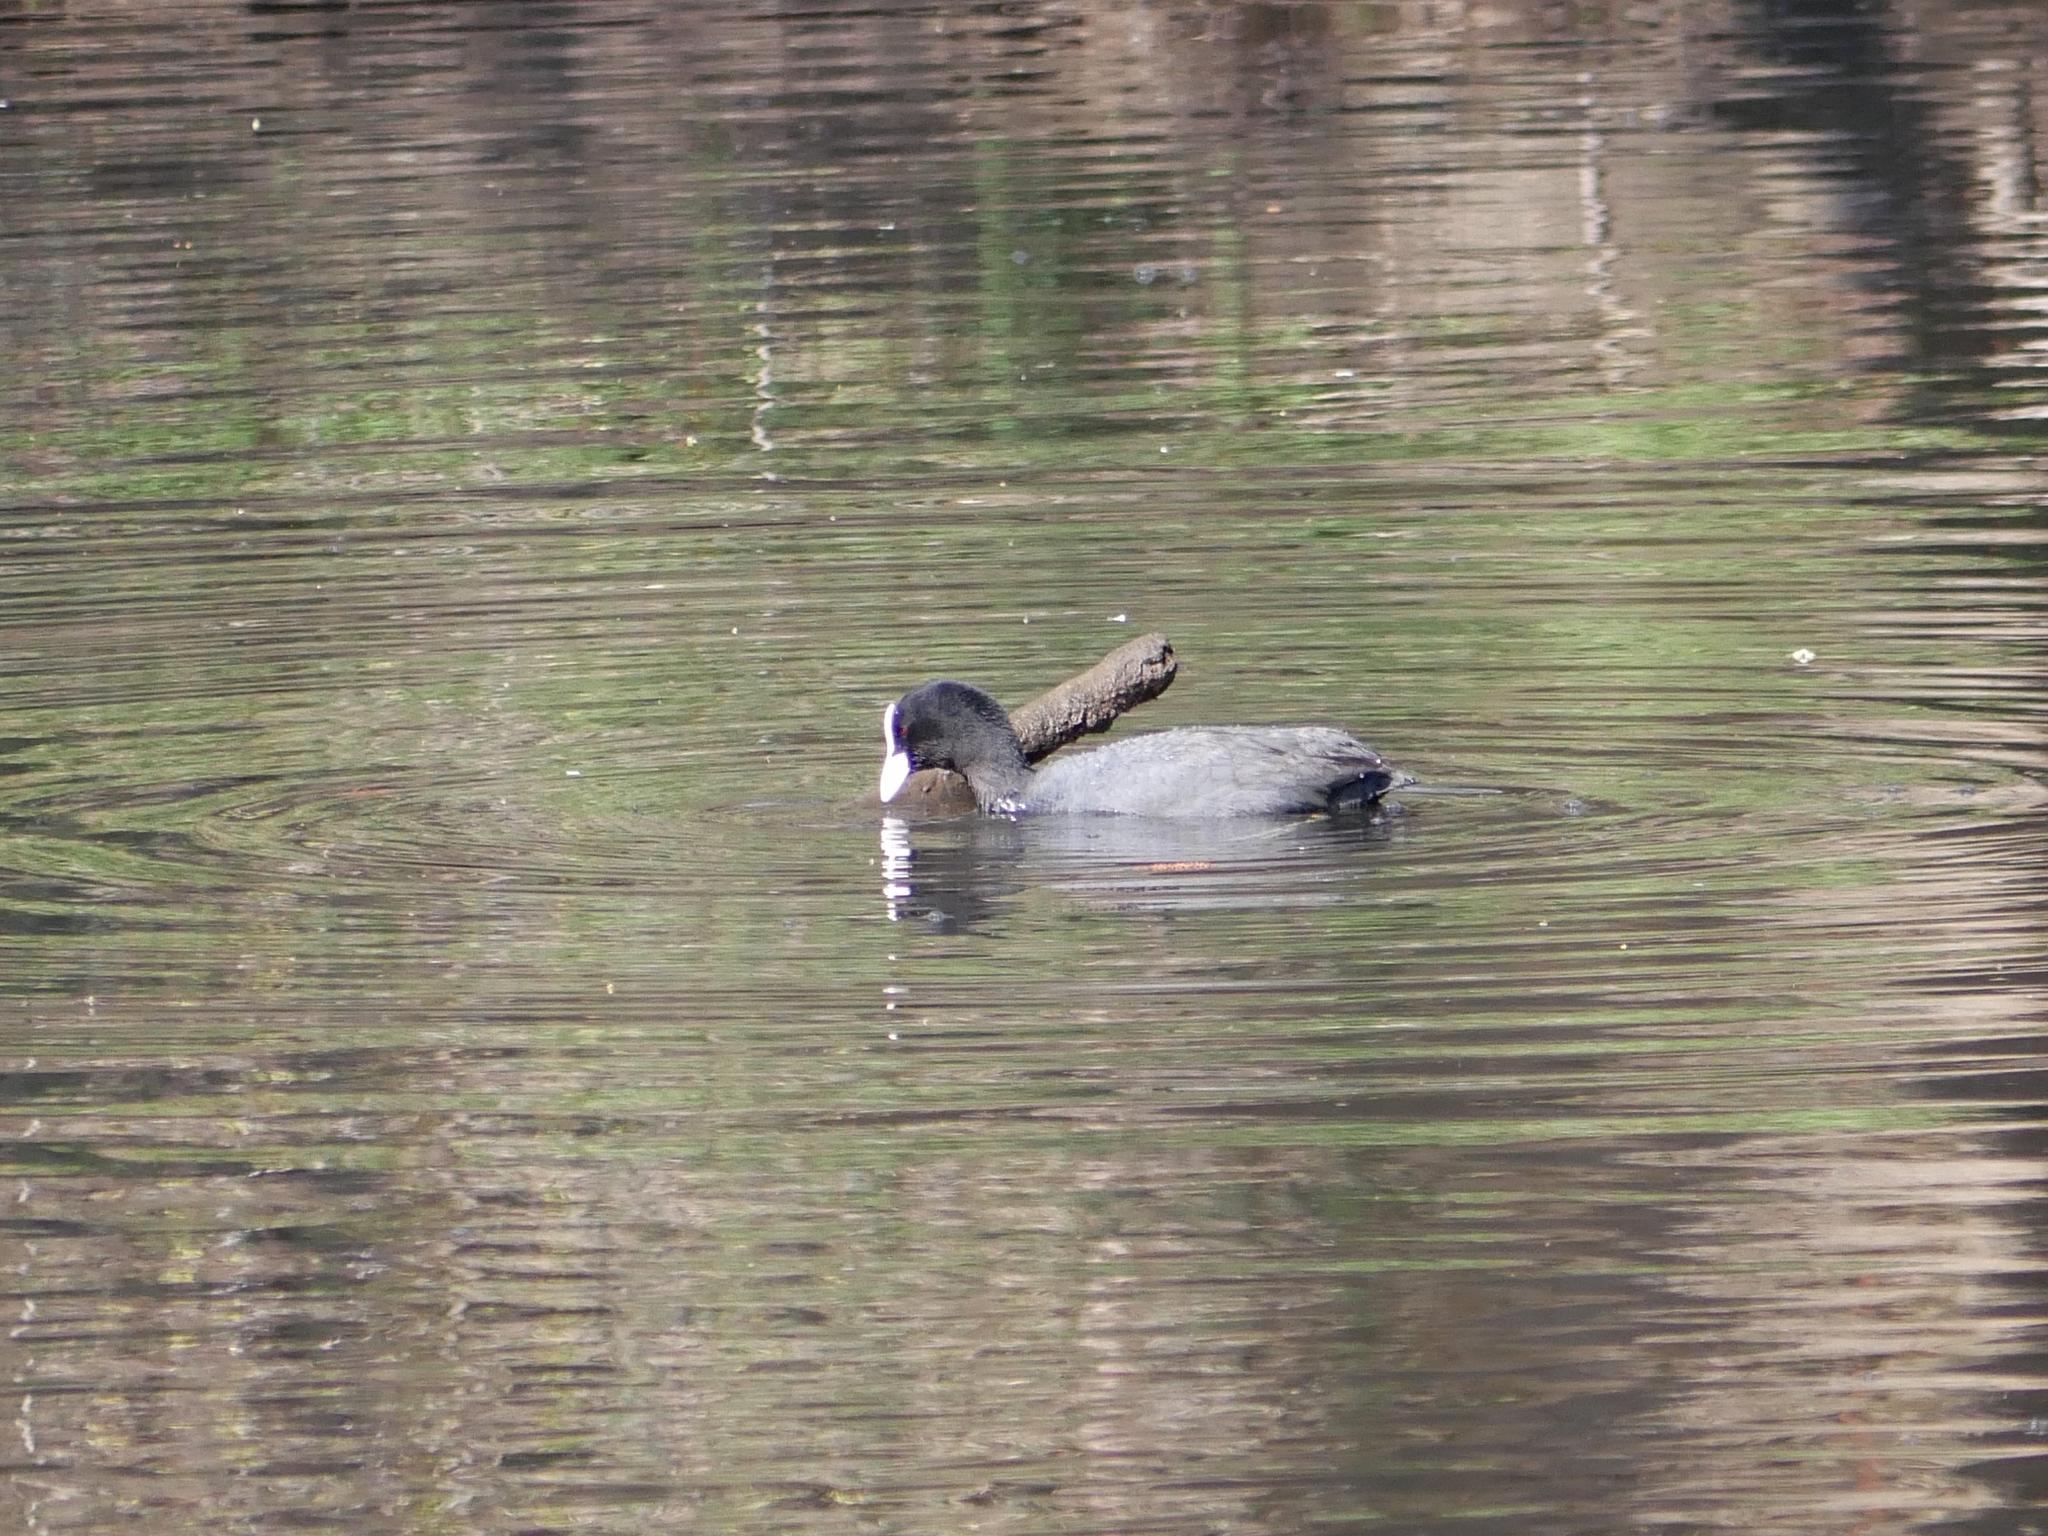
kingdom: Animalia
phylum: Chordata
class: Aves
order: Gruiformes
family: Rallidae
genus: Fulica
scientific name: Fulica atra
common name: Eurasian coot
